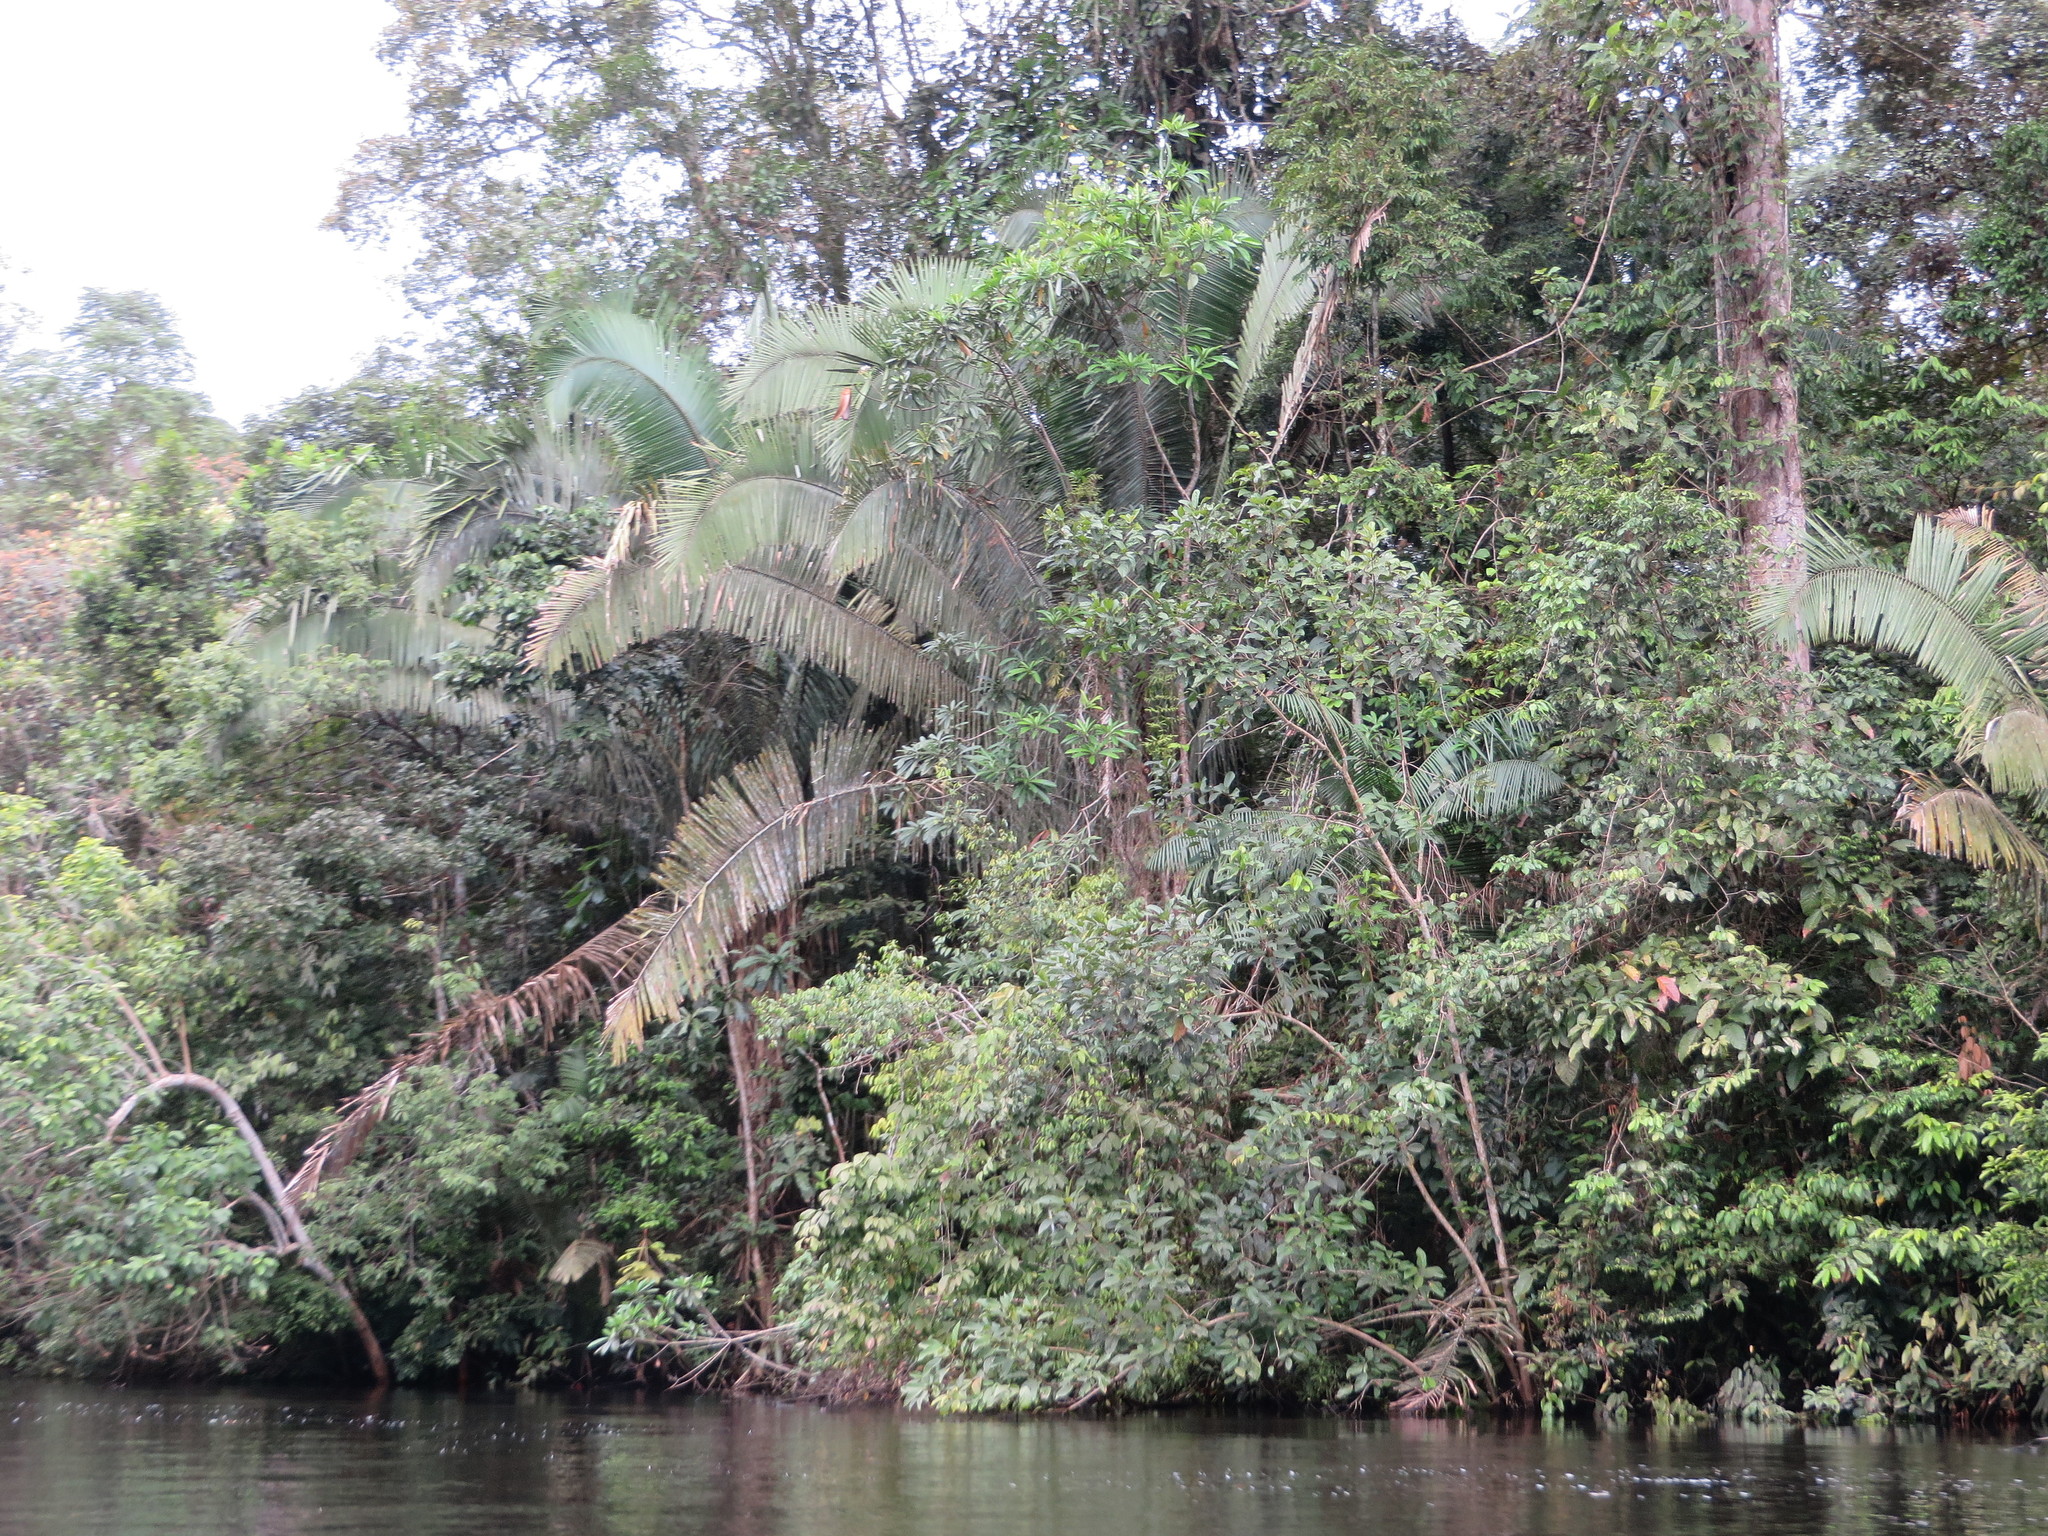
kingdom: Plantae
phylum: Tracheophyta
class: Liliopsida
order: Arecales
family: Arecaceae
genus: Attalea
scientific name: Attalea butyracea
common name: Kuakish
